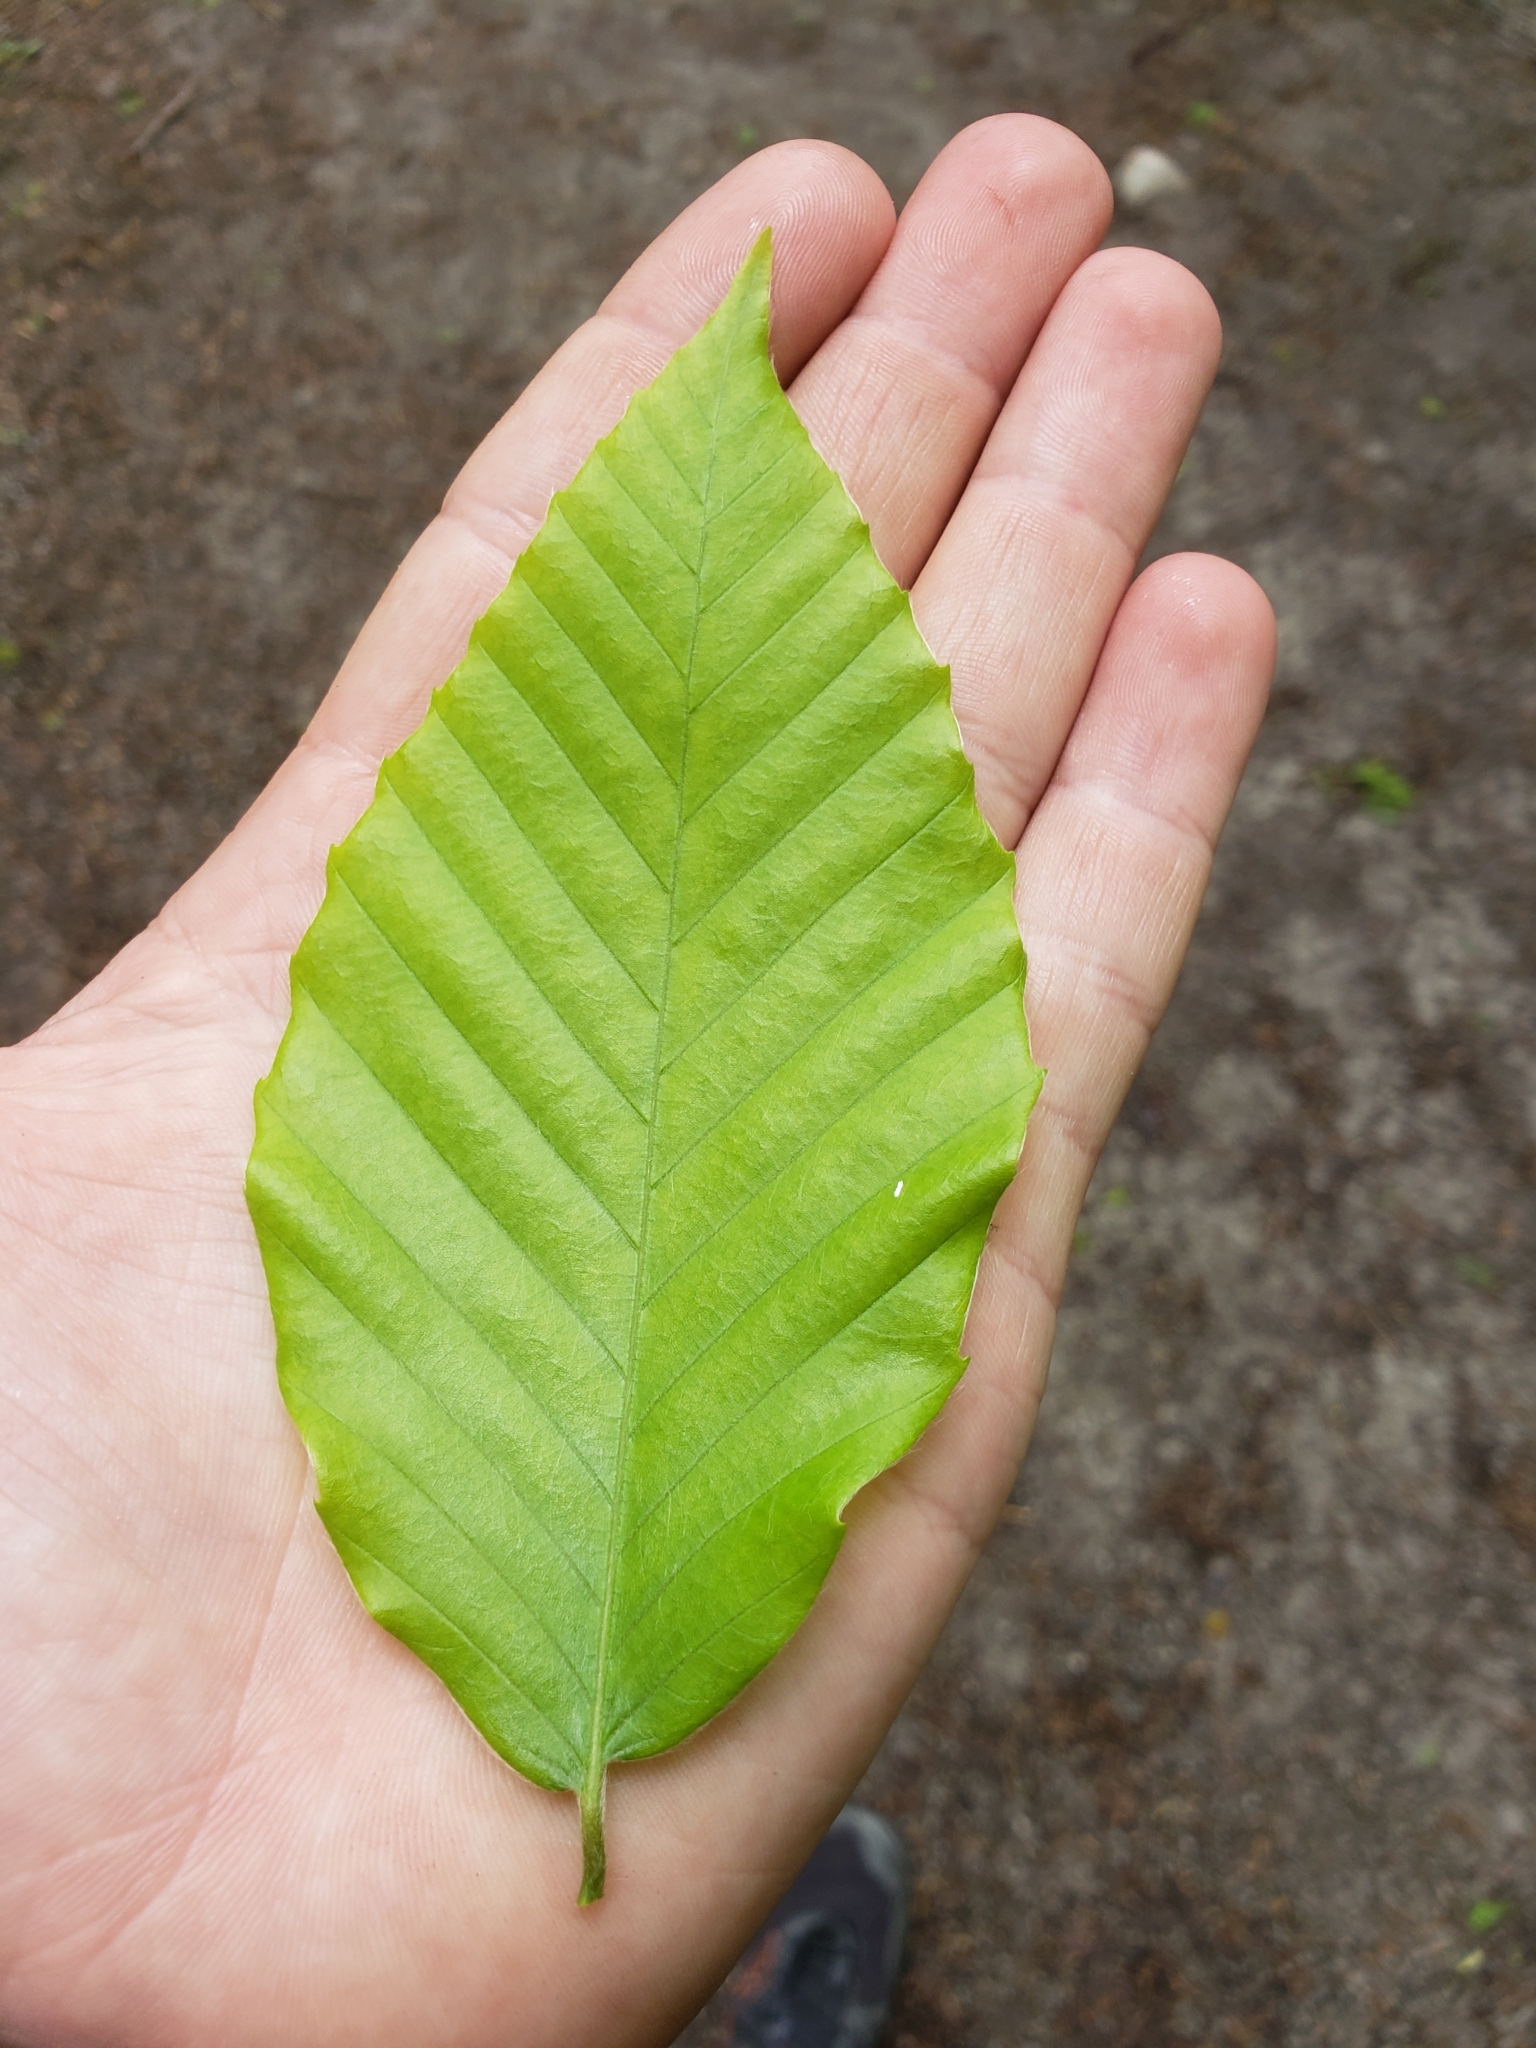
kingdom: Plantae
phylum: Tracheophyta
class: Magnoliopsida
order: Fagales
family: Fagaceae
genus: Fagus
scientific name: Fagus grandifolia
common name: American beech
